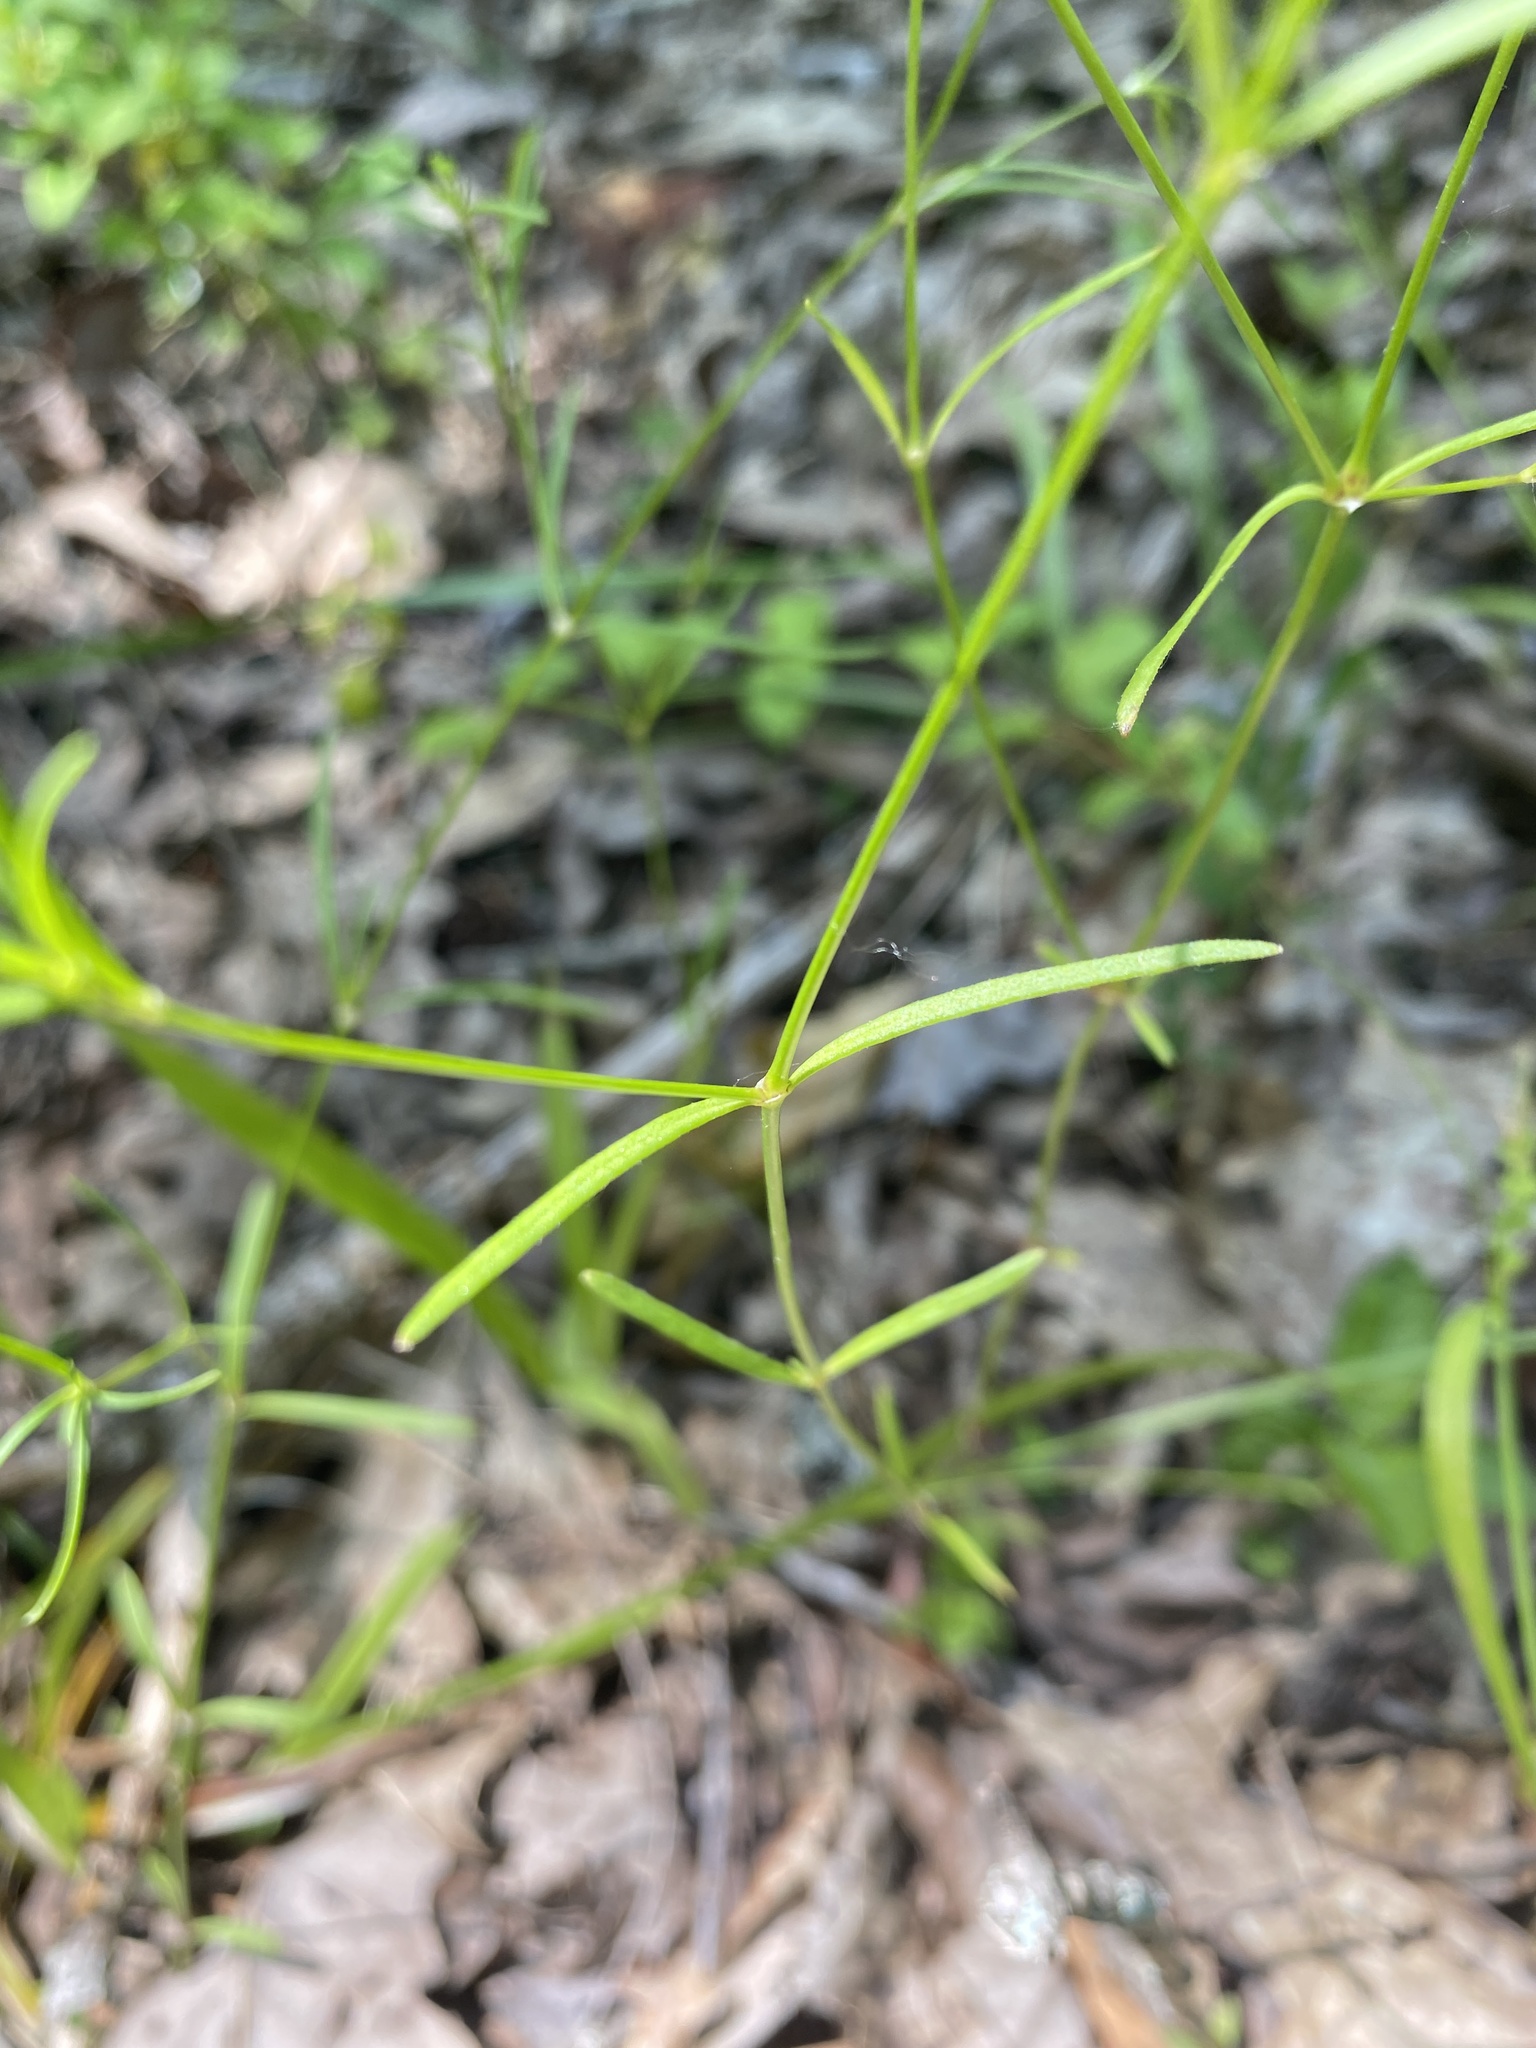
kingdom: Plantae
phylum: Tracheophyta
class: Magnoliopsida
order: Gentianales
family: Rubiaceae
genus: Houstonia
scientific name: Houstonia longifolia
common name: Long-leaved bluets
